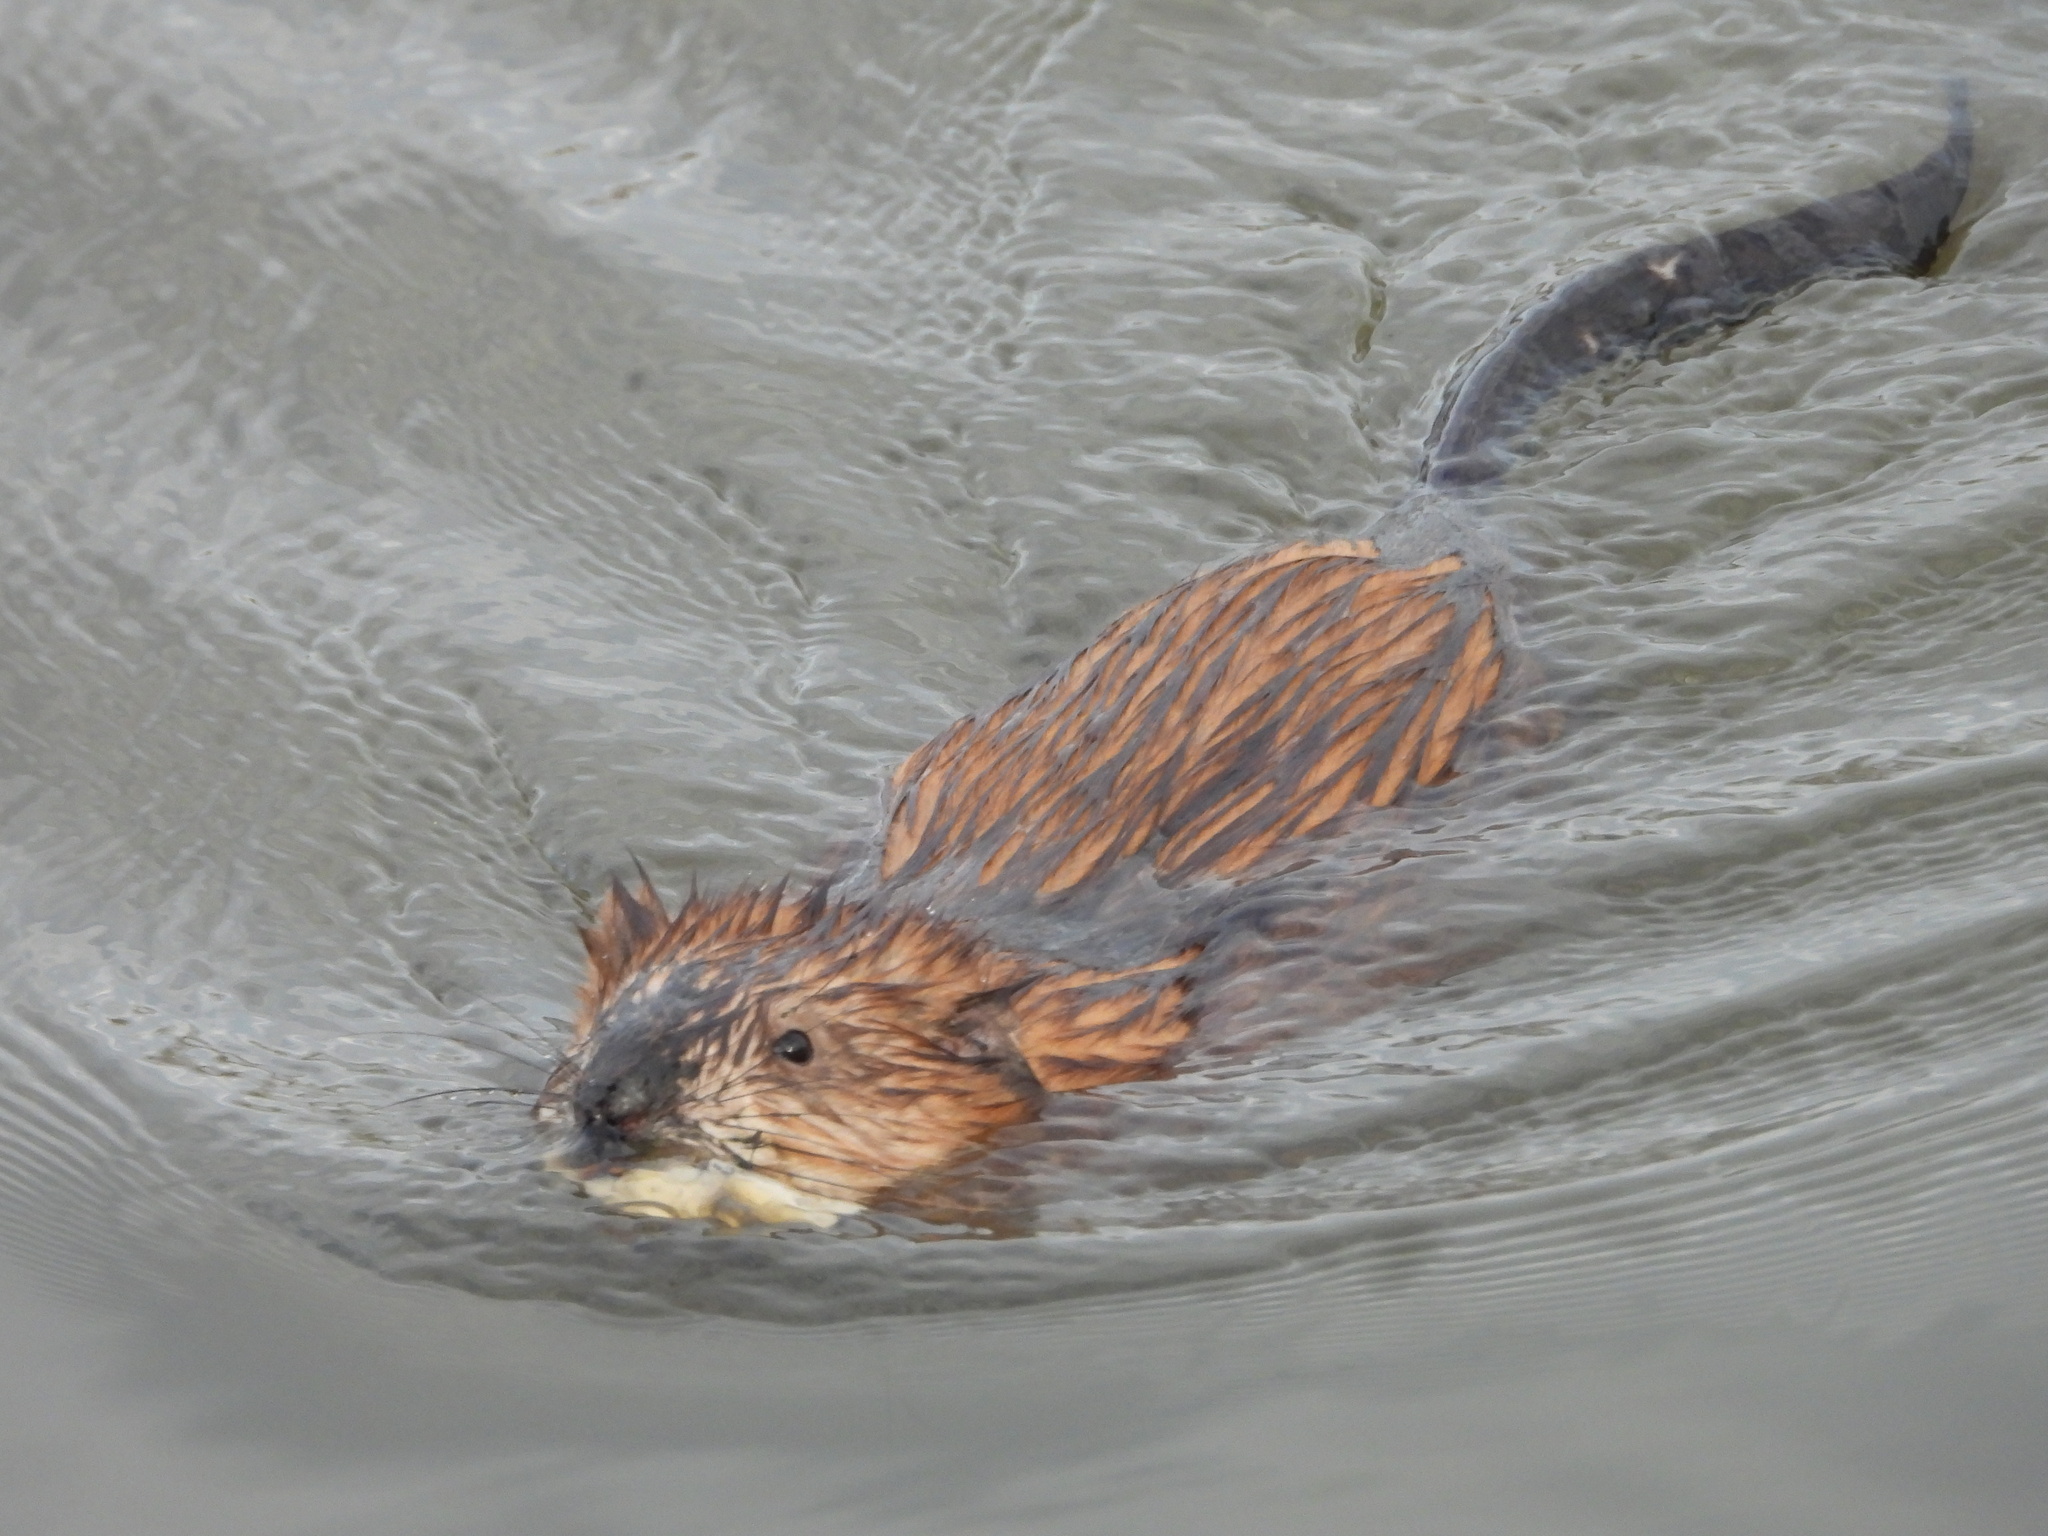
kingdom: Animalia
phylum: Chordata
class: Mammalia
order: Rodentia
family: Cricetidae
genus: Ondatra
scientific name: Ondatra zibethicus
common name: Muskrat
